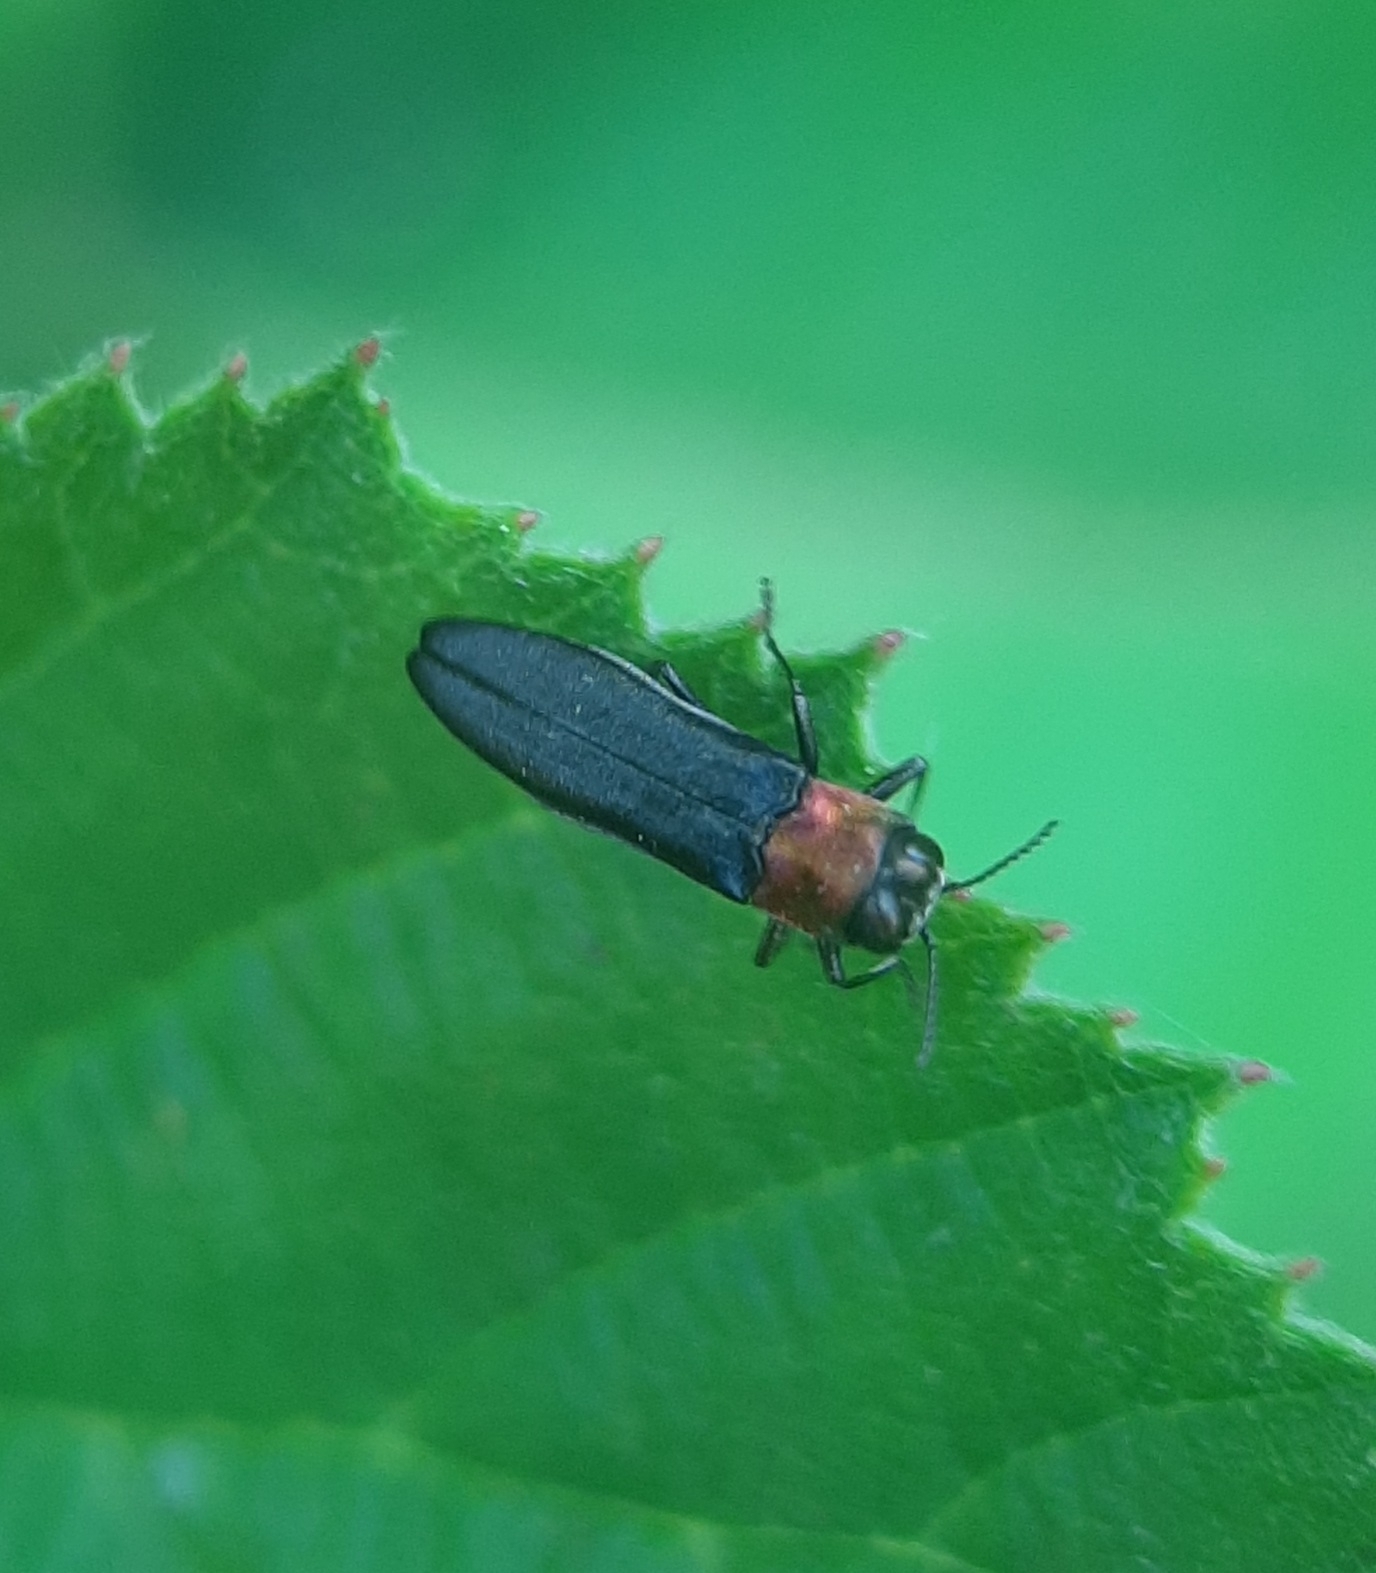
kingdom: Animalia
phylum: Arthropoda
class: Insecta
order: Coleoptera
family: Buprestidae
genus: Agrilus
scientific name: Agrilus ruficollis
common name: Red-necked cane borer beetle
